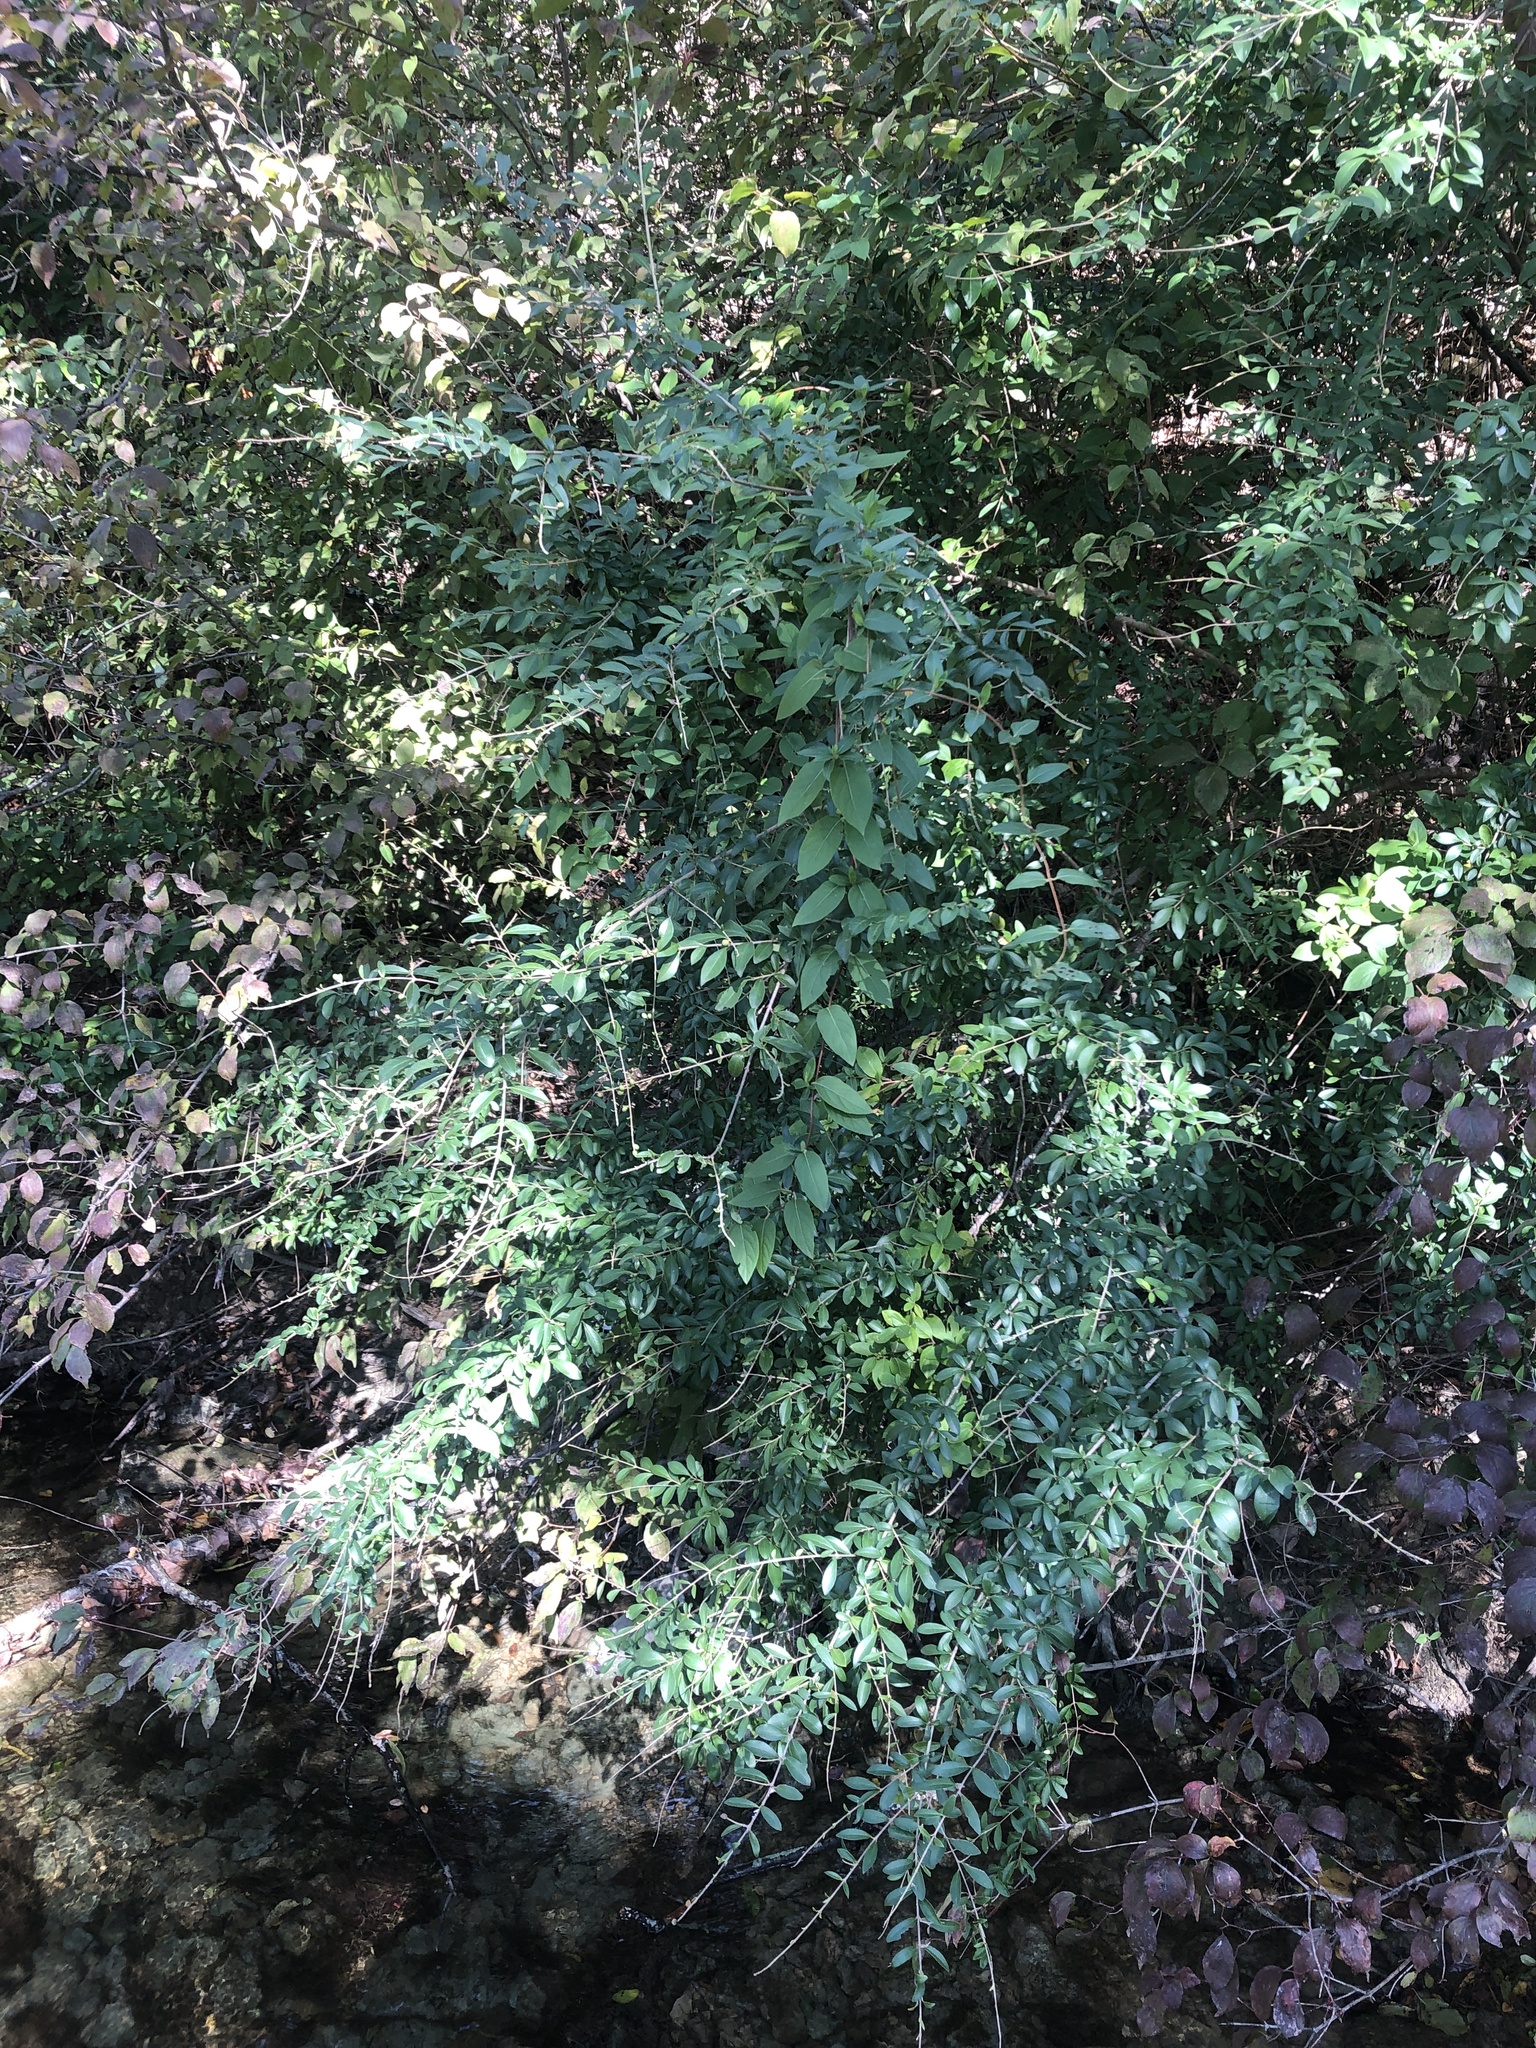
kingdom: Plantae
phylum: Tracheophyta
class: Magnoliopsida
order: Lamiales
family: Oleaceae
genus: Ligustrum
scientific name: Ligustrum quihoui
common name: Waxyleaf privet
